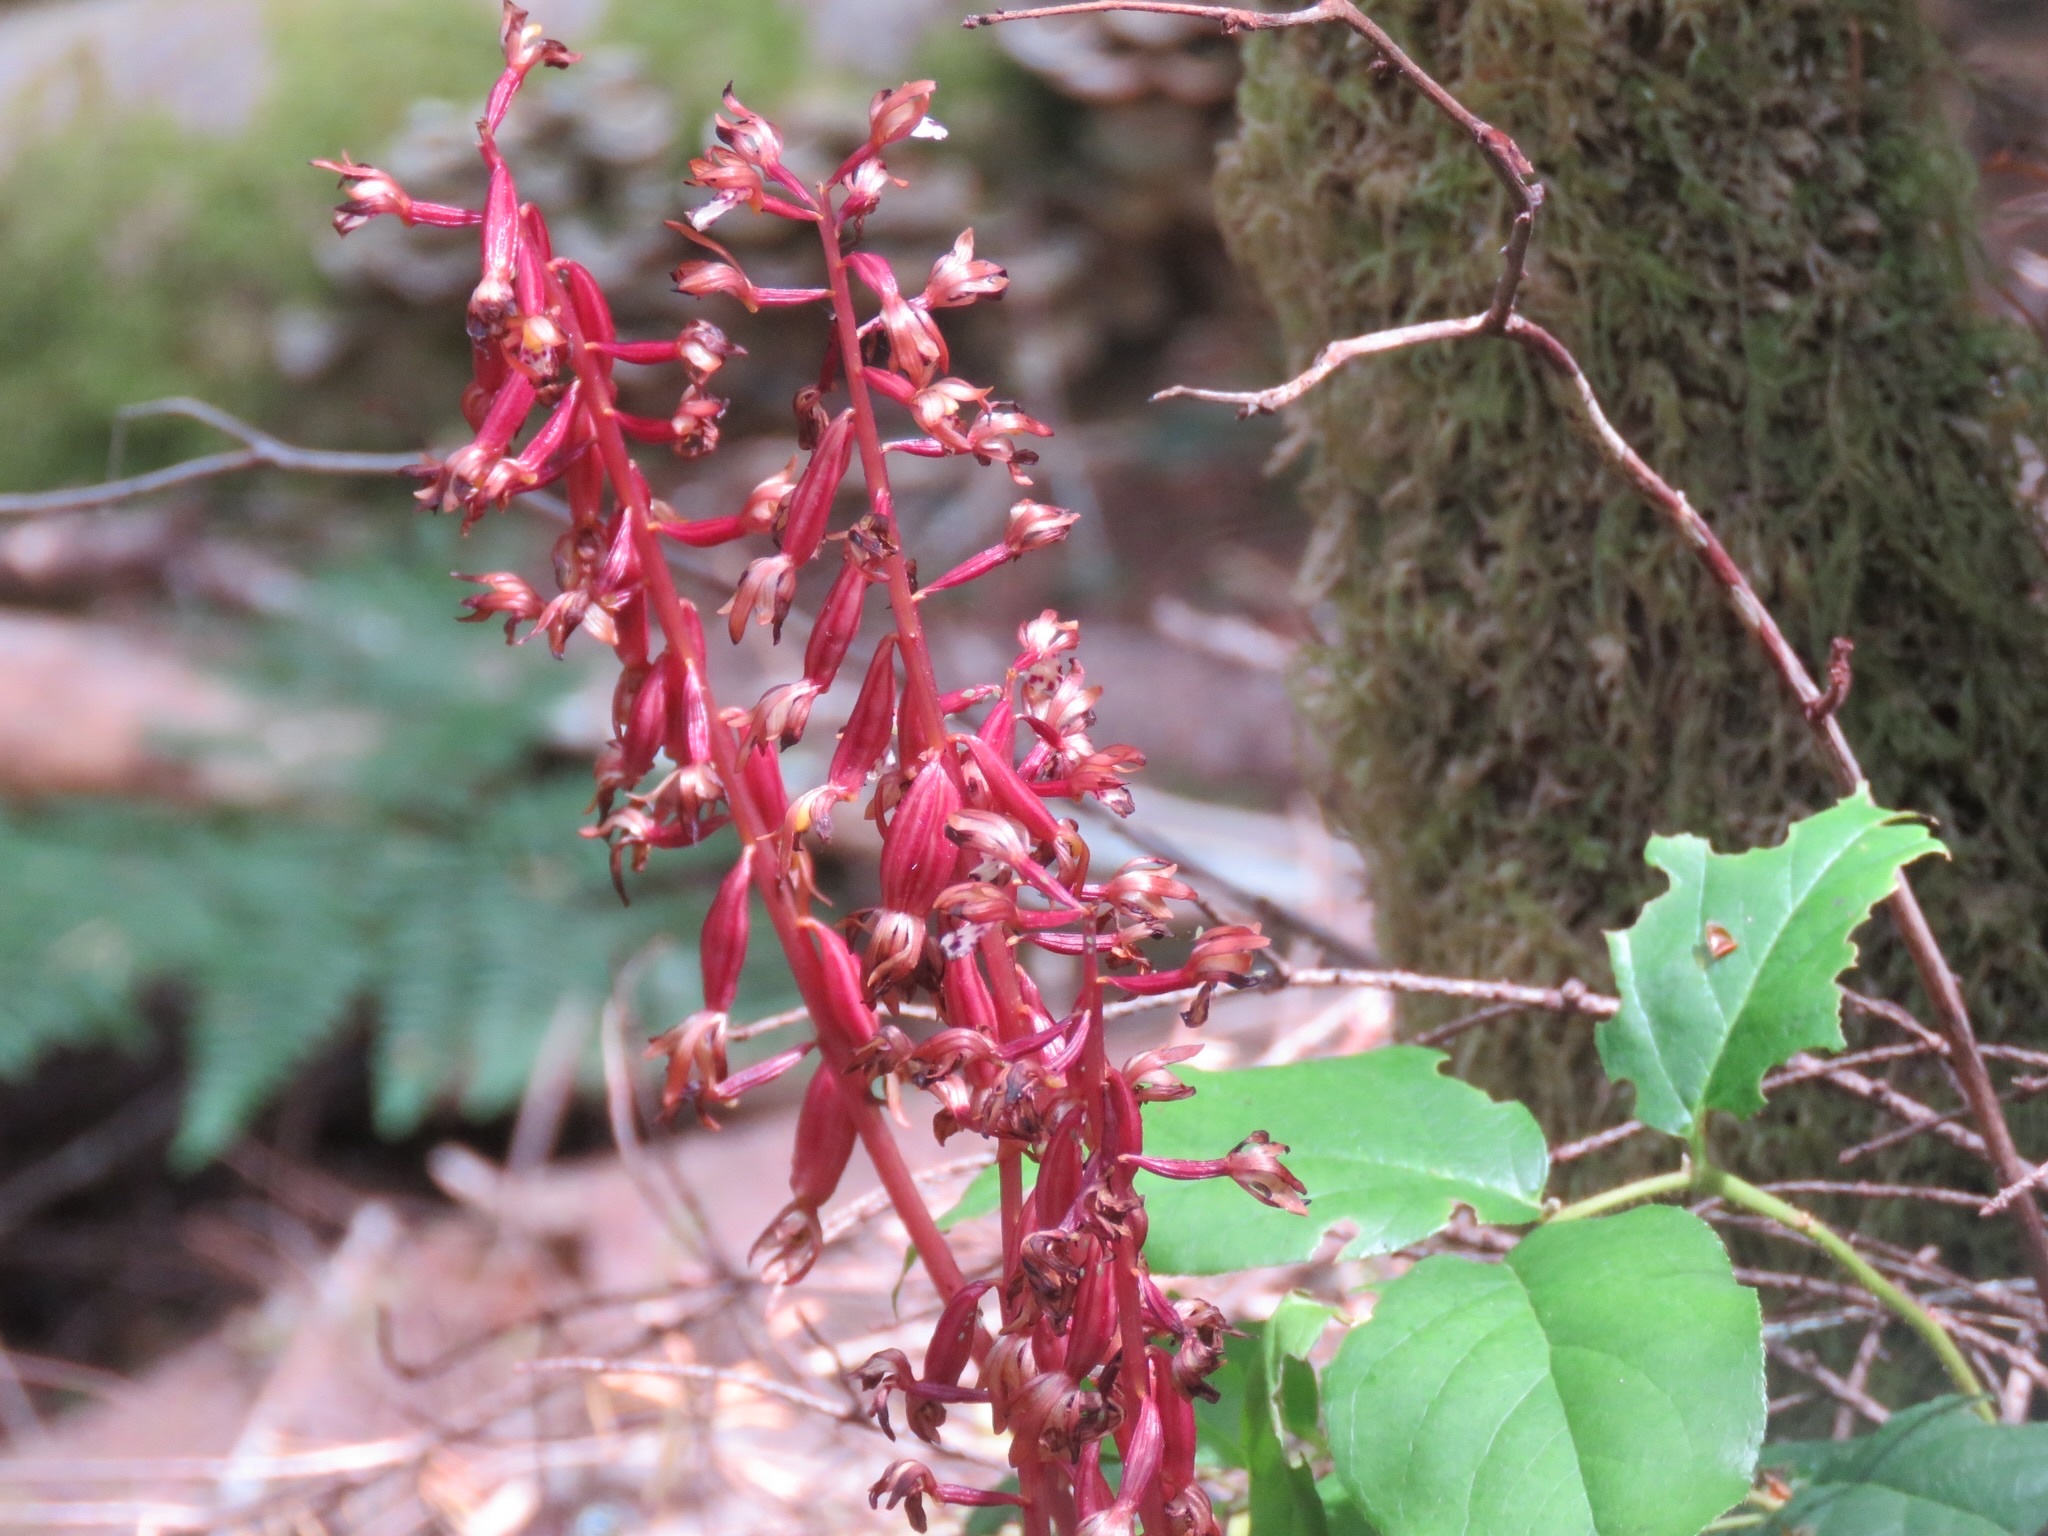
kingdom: Plantae
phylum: Tracheophyta
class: Liliopsida
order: Asparagales
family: Orchidaceae
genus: Corallorhiza
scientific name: Corallorhiza maculata
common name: Spotted coralroot
